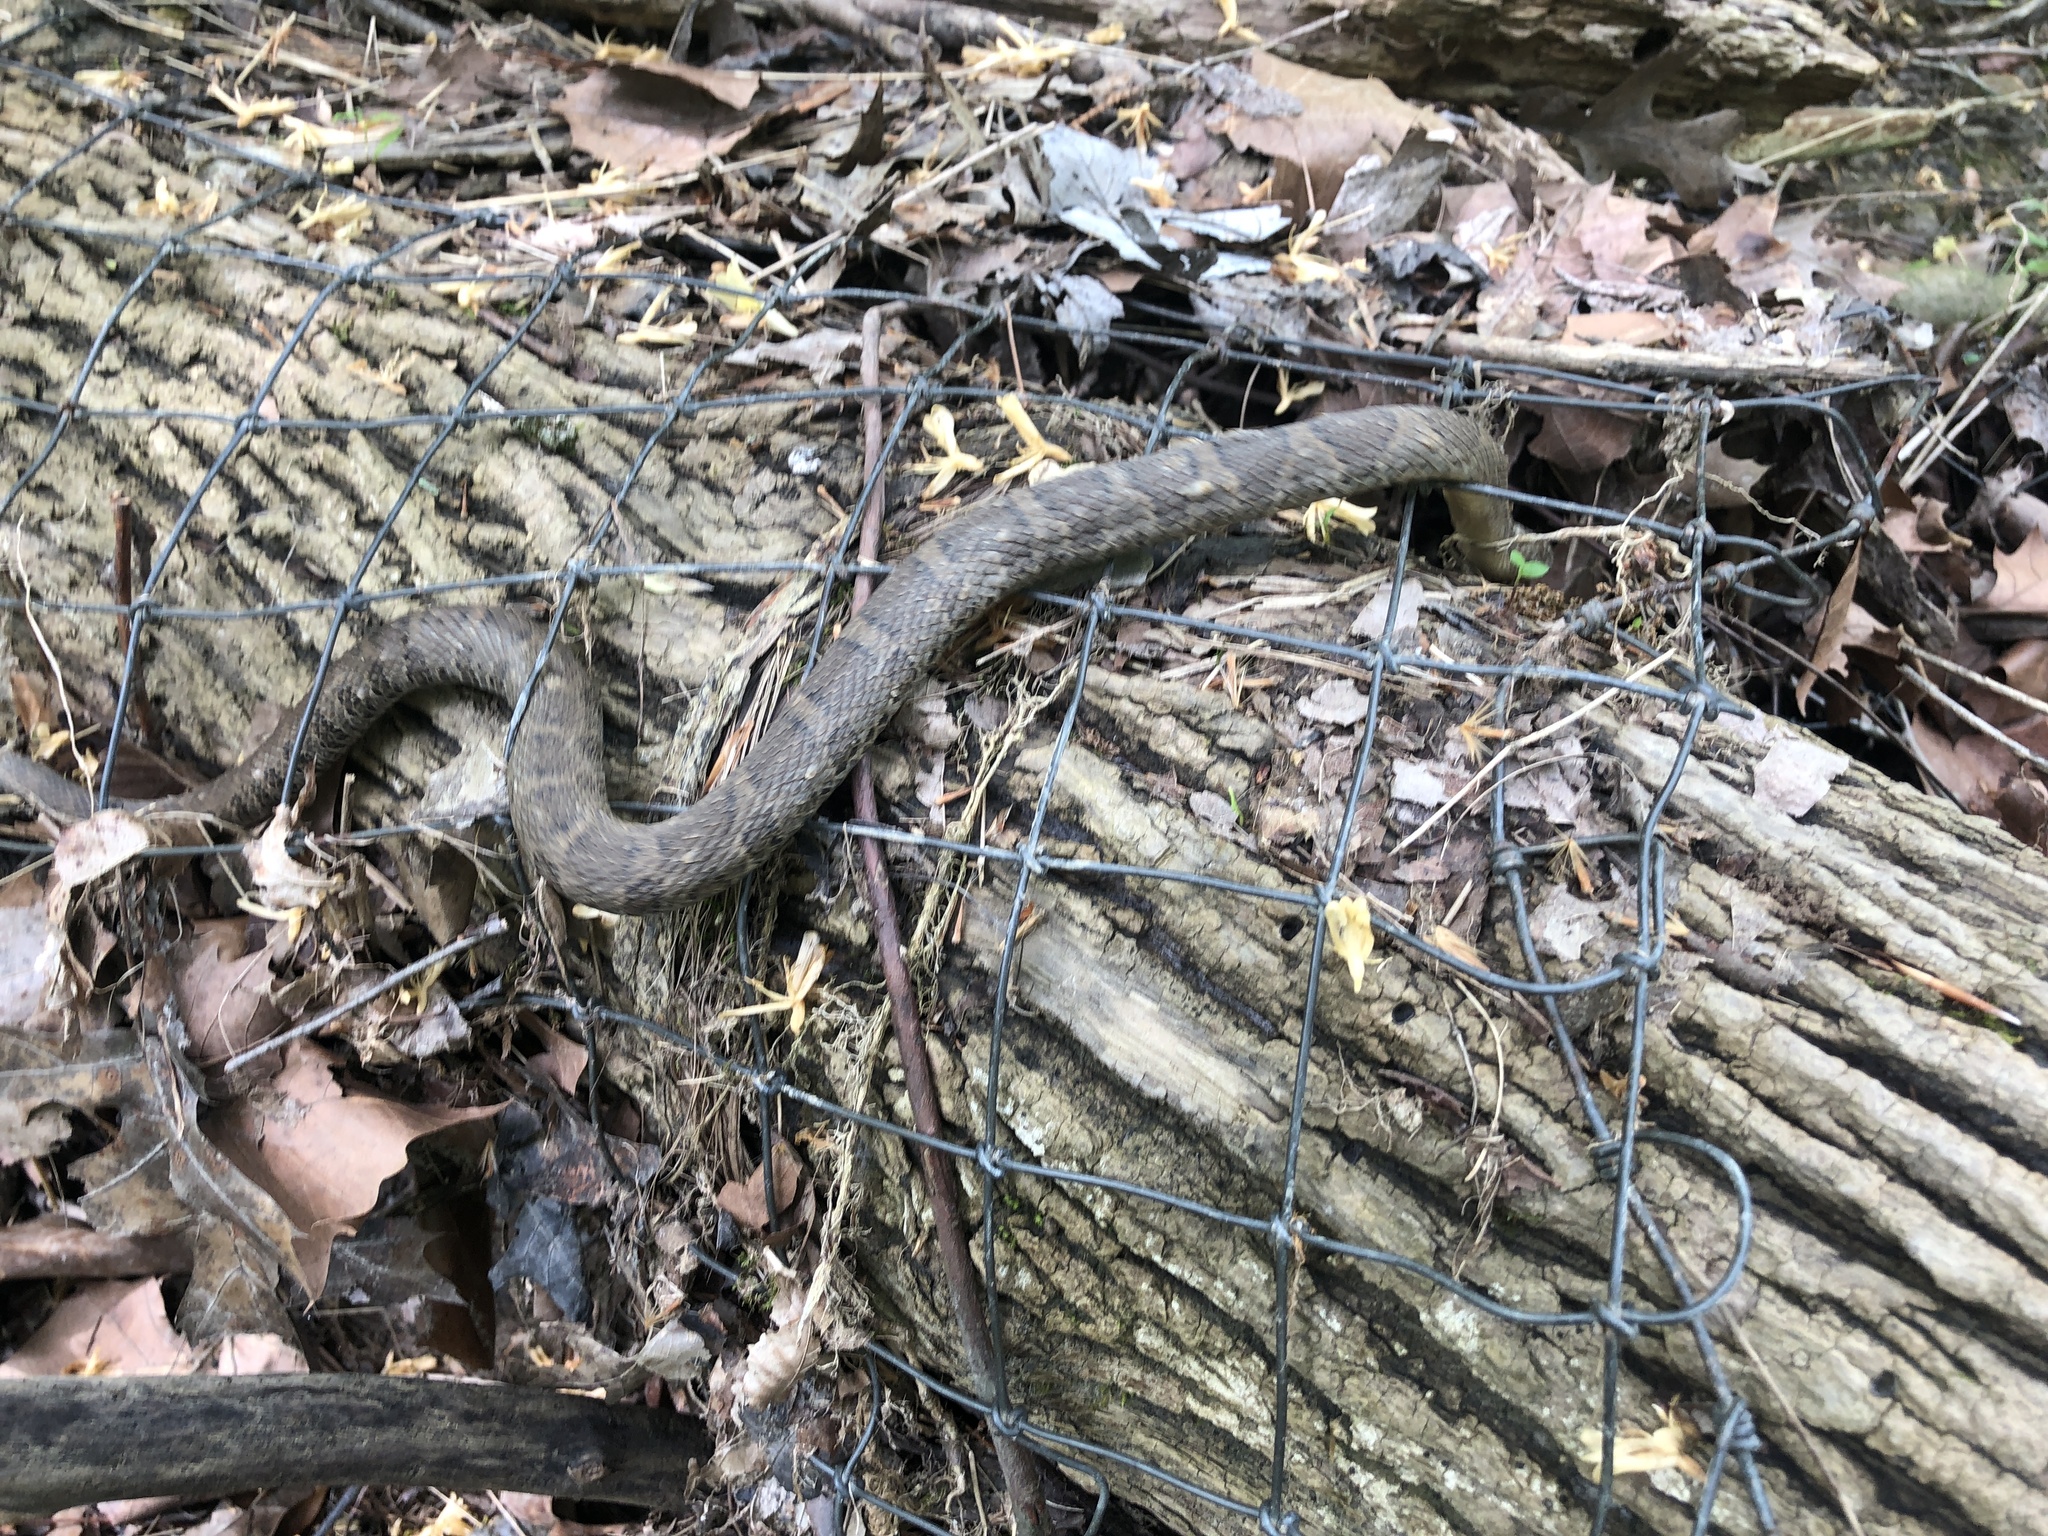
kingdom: Animalia
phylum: Chordata
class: Squamata
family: Colubridae
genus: Nerodia
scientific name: Nerodia sipedon
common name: Northern water snake
